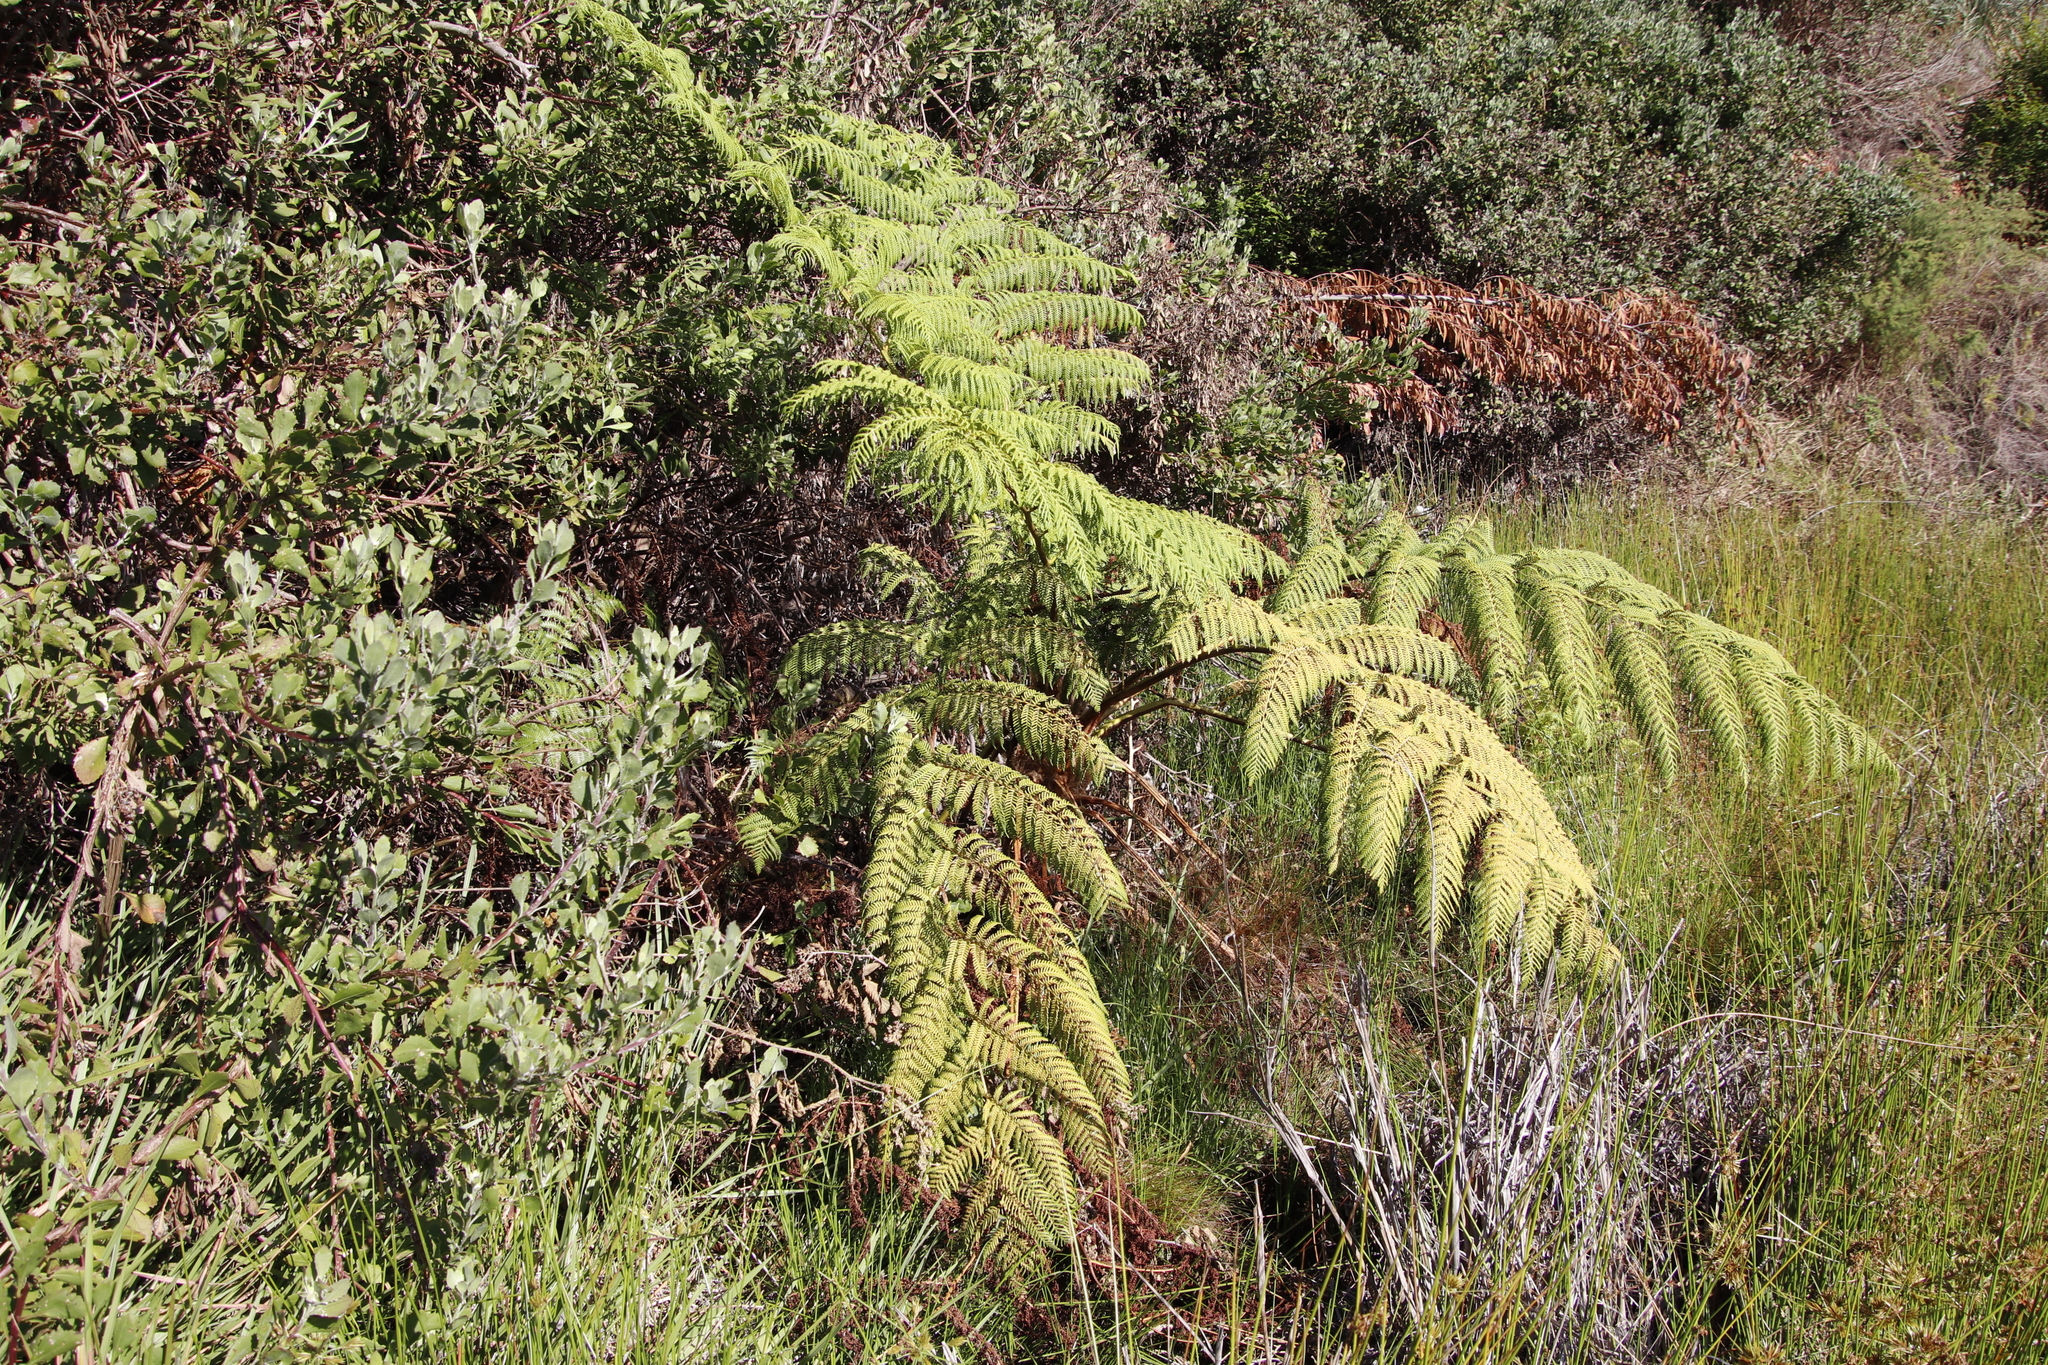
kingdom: Plantae
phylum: Tracheophyta
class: Polypodiopsida
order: Cyatheales
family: Cyatheaceae
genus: Sphaeropteris
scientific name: Sphaeropteris cooperi
